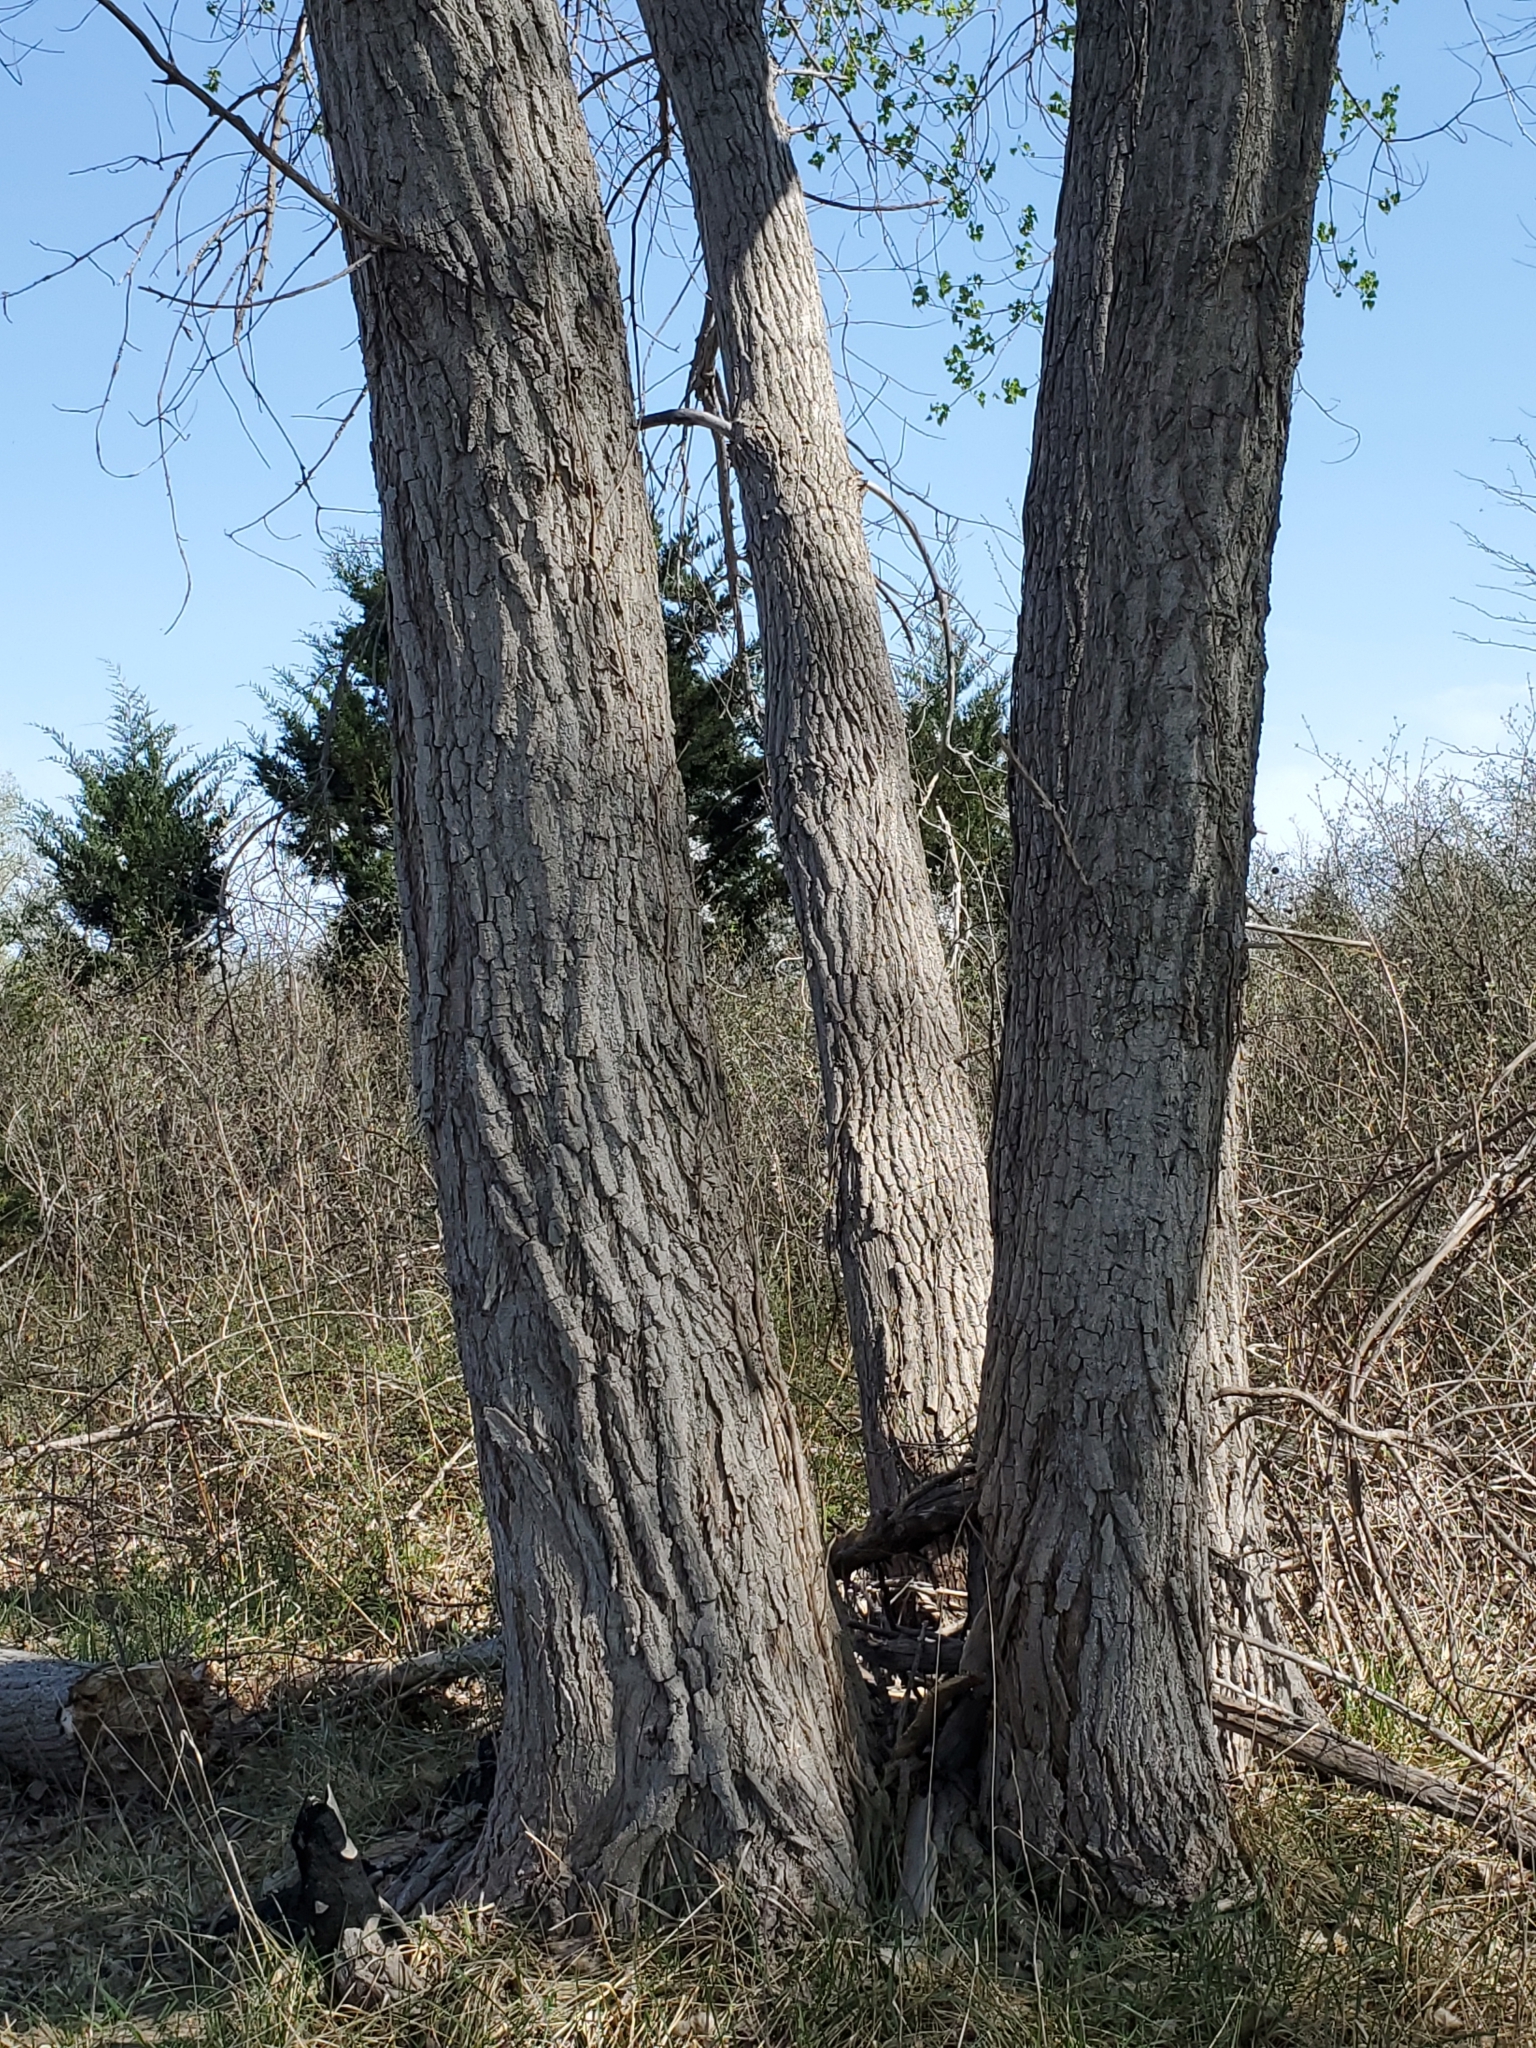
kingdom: Plantae
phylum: Tracheophyta
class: Magnoliopsida
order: Malpighiales
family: Salicaceae
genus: Populus
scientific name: Populus deltoides
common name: Eastern cottonwood
